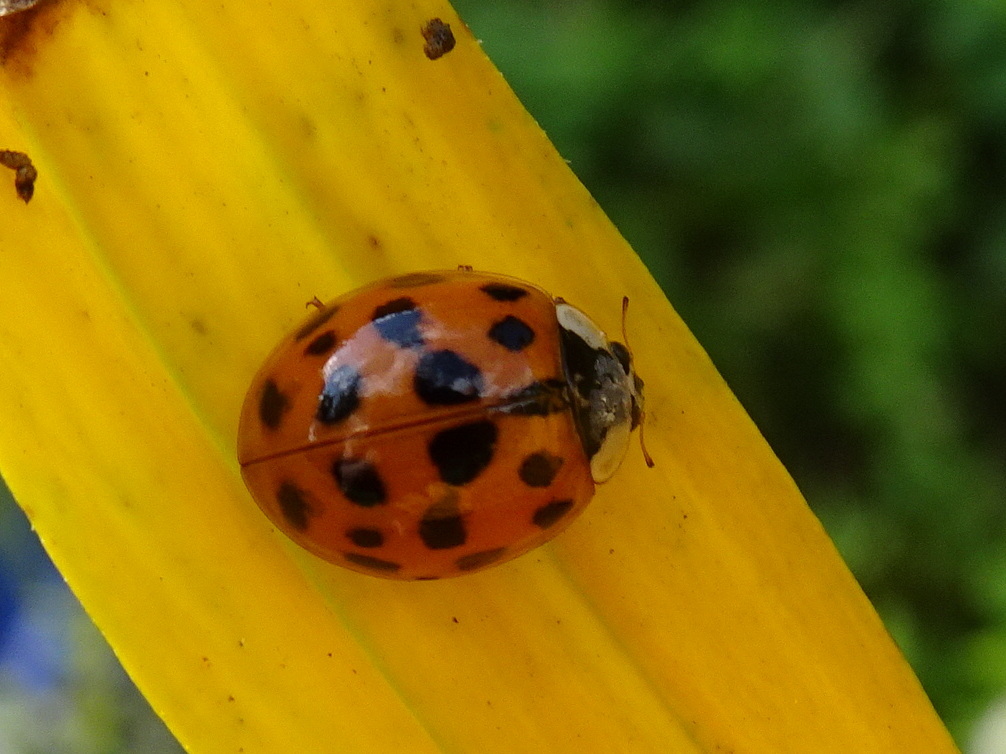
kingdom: Animalia
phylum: Arthropoda
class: Insecta
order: Coleoptera
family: Coccinellidae
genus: Harmonia
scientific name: Harmonia axyridis
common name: Harlequin ladybird
